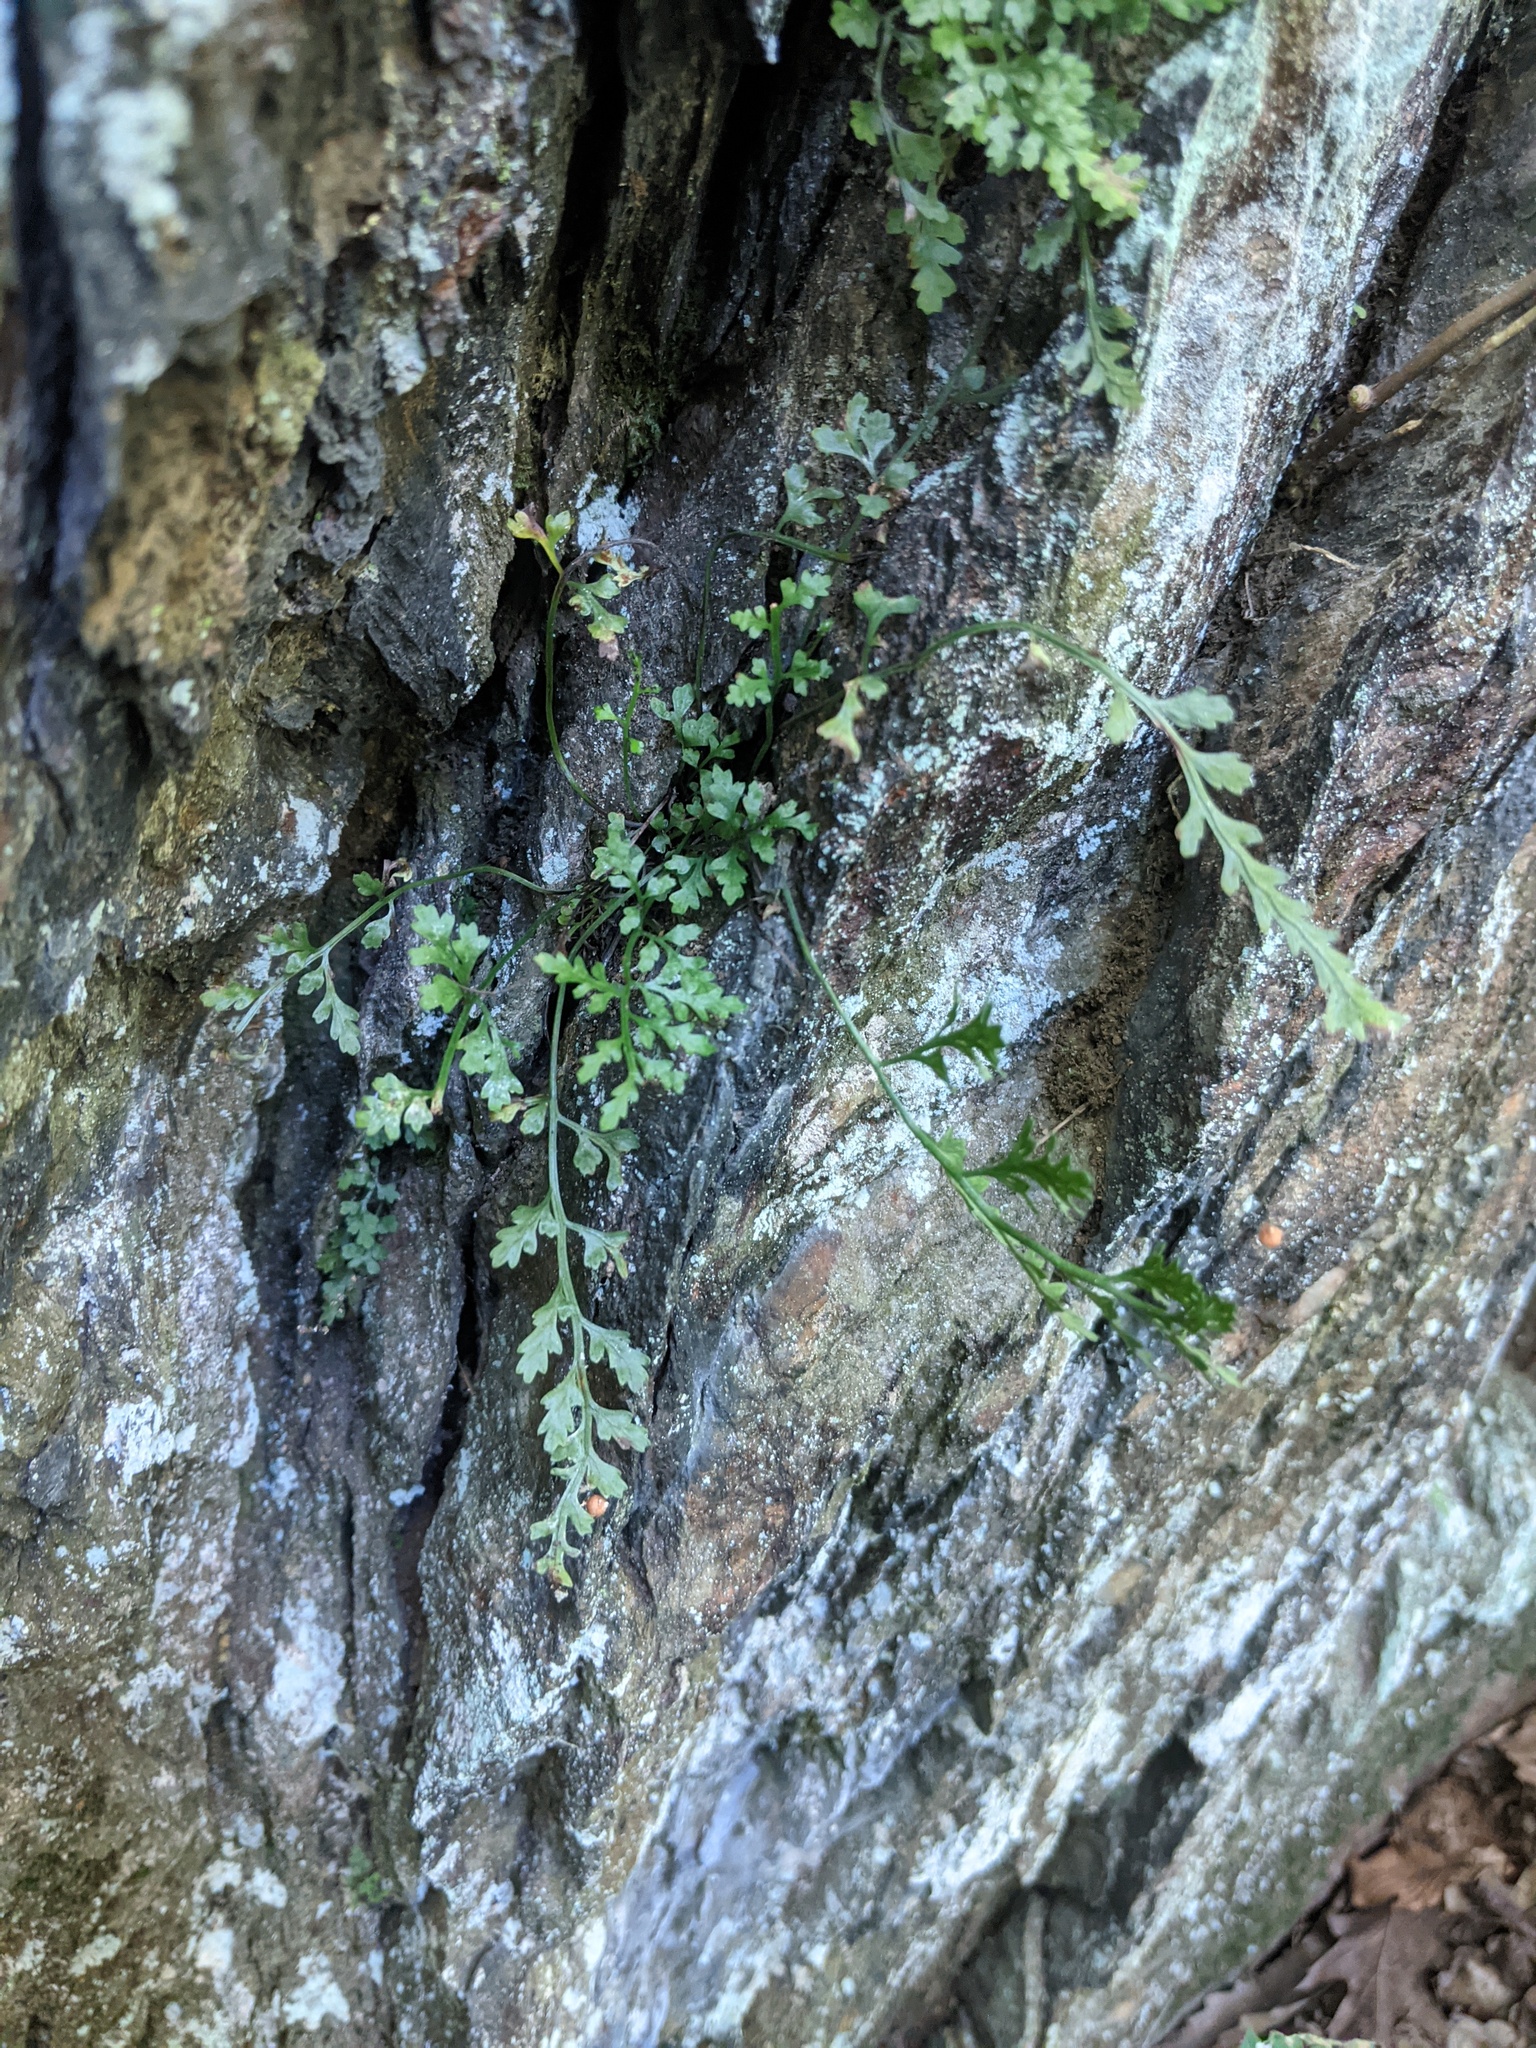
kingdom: Plantae
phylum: Tracheophyta
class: Polypodiopsida
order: Polypodiales
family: Aspleniaceae
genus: Asplenium
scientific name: Asplenium montanum
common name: Mountain spleenwort
